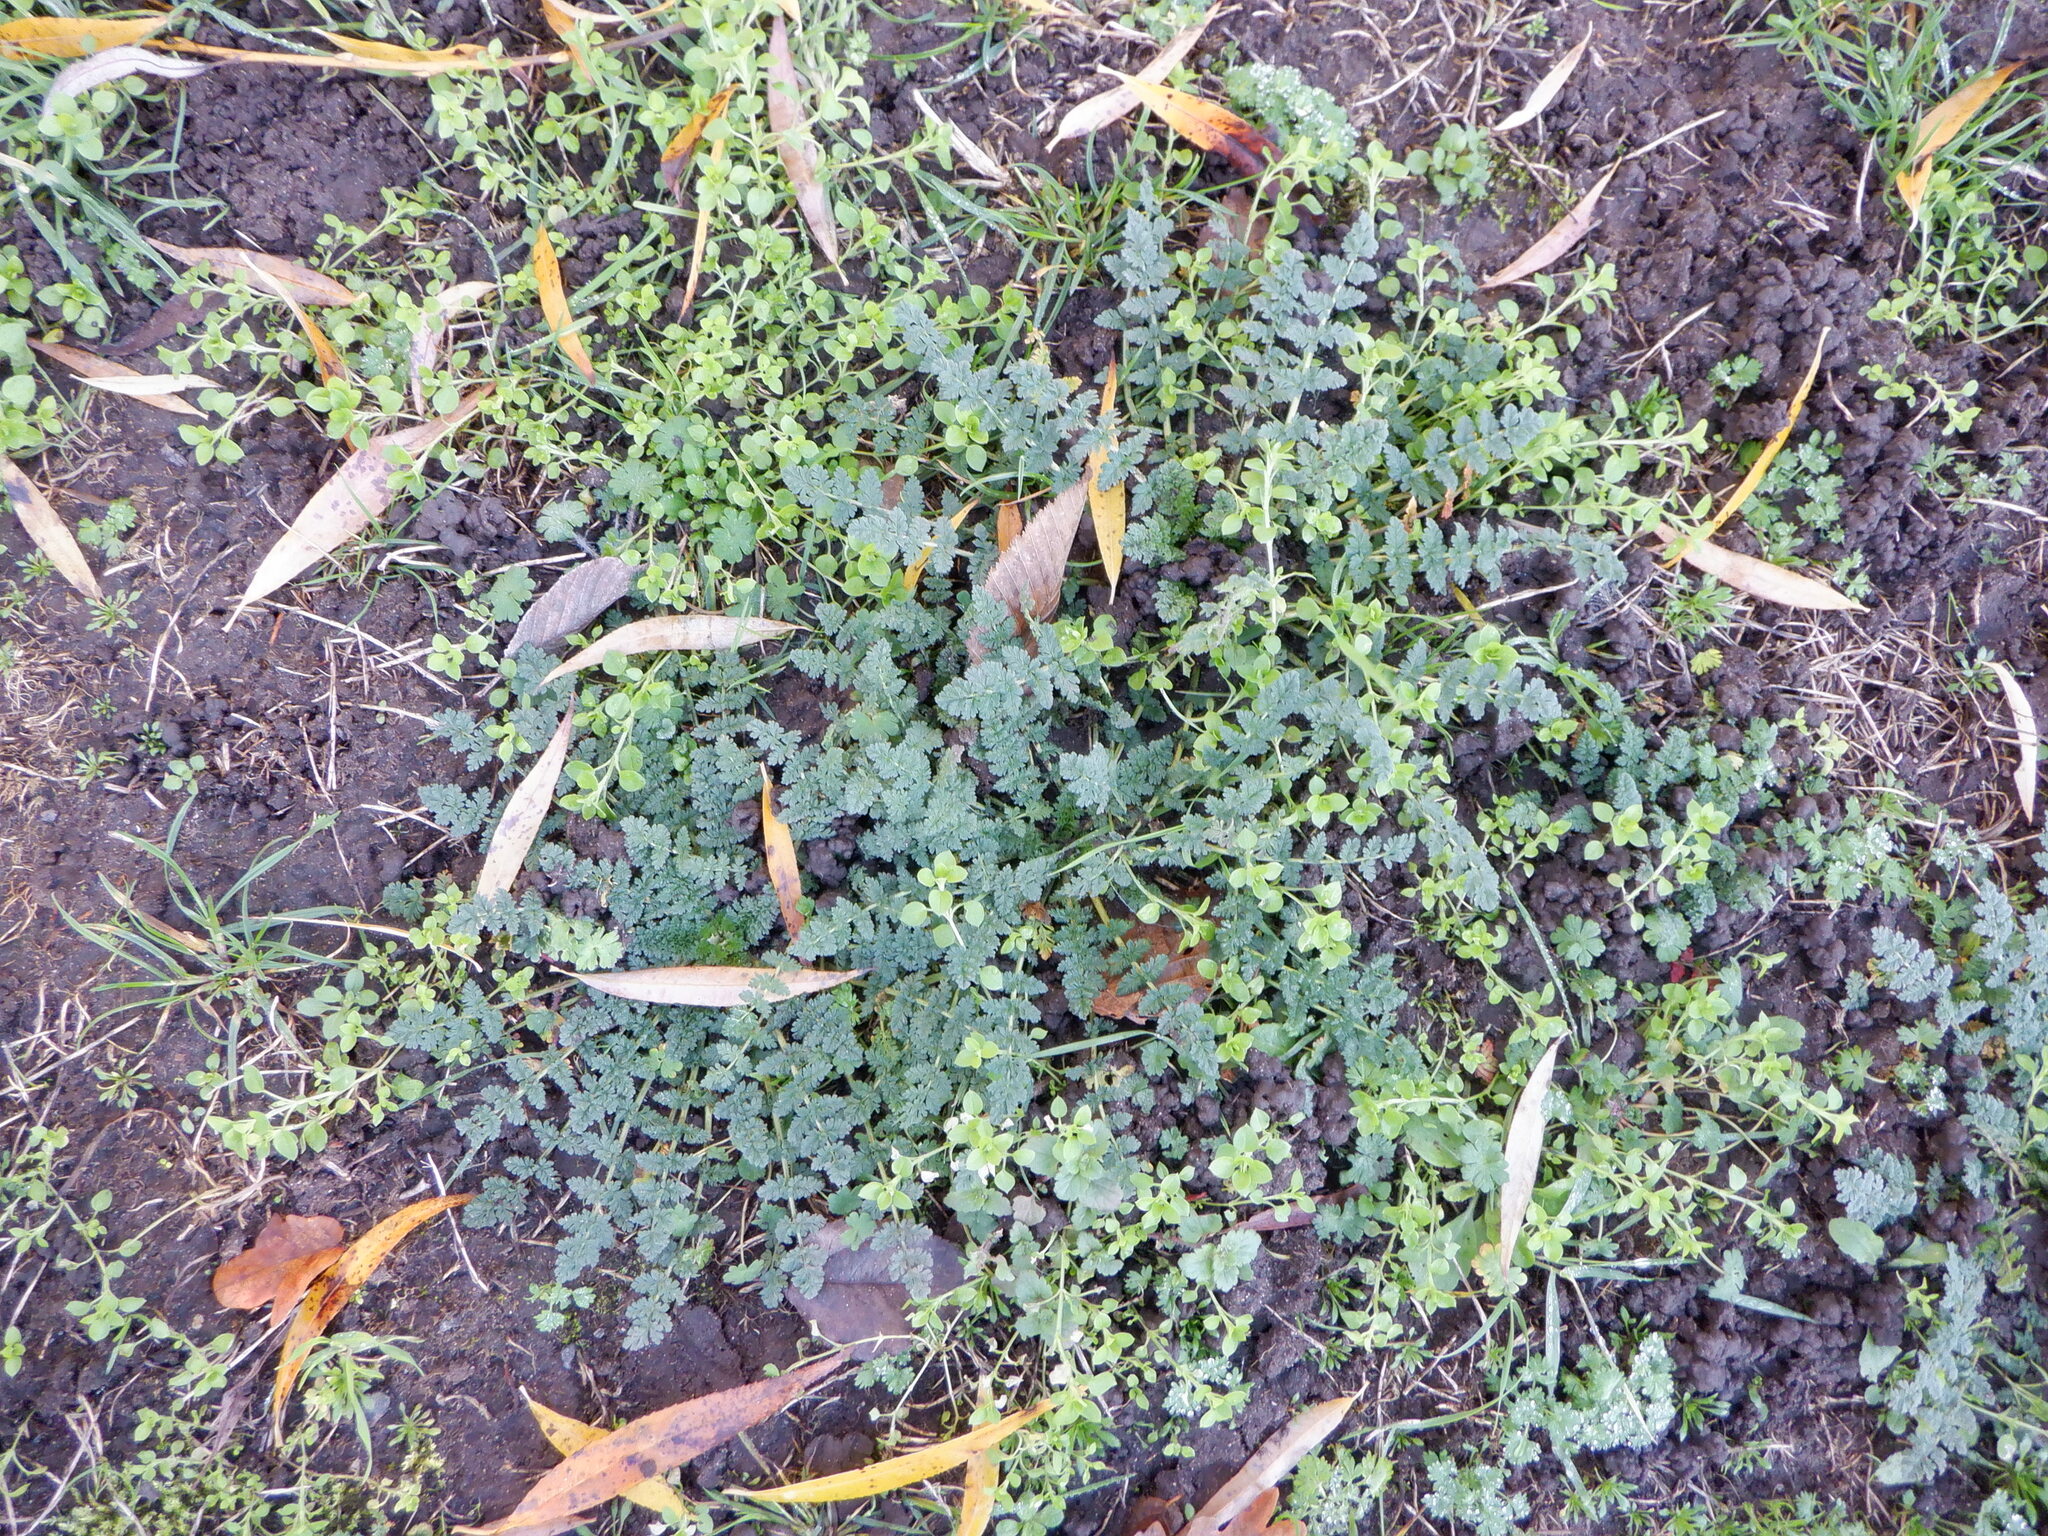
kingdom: Plantae
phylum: Tracheophyta
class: Magnoliopsida
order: Geraniales
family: Geraniaceae
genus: Erodium
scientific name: Erodium cicutarium
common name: Common stork's-bill
